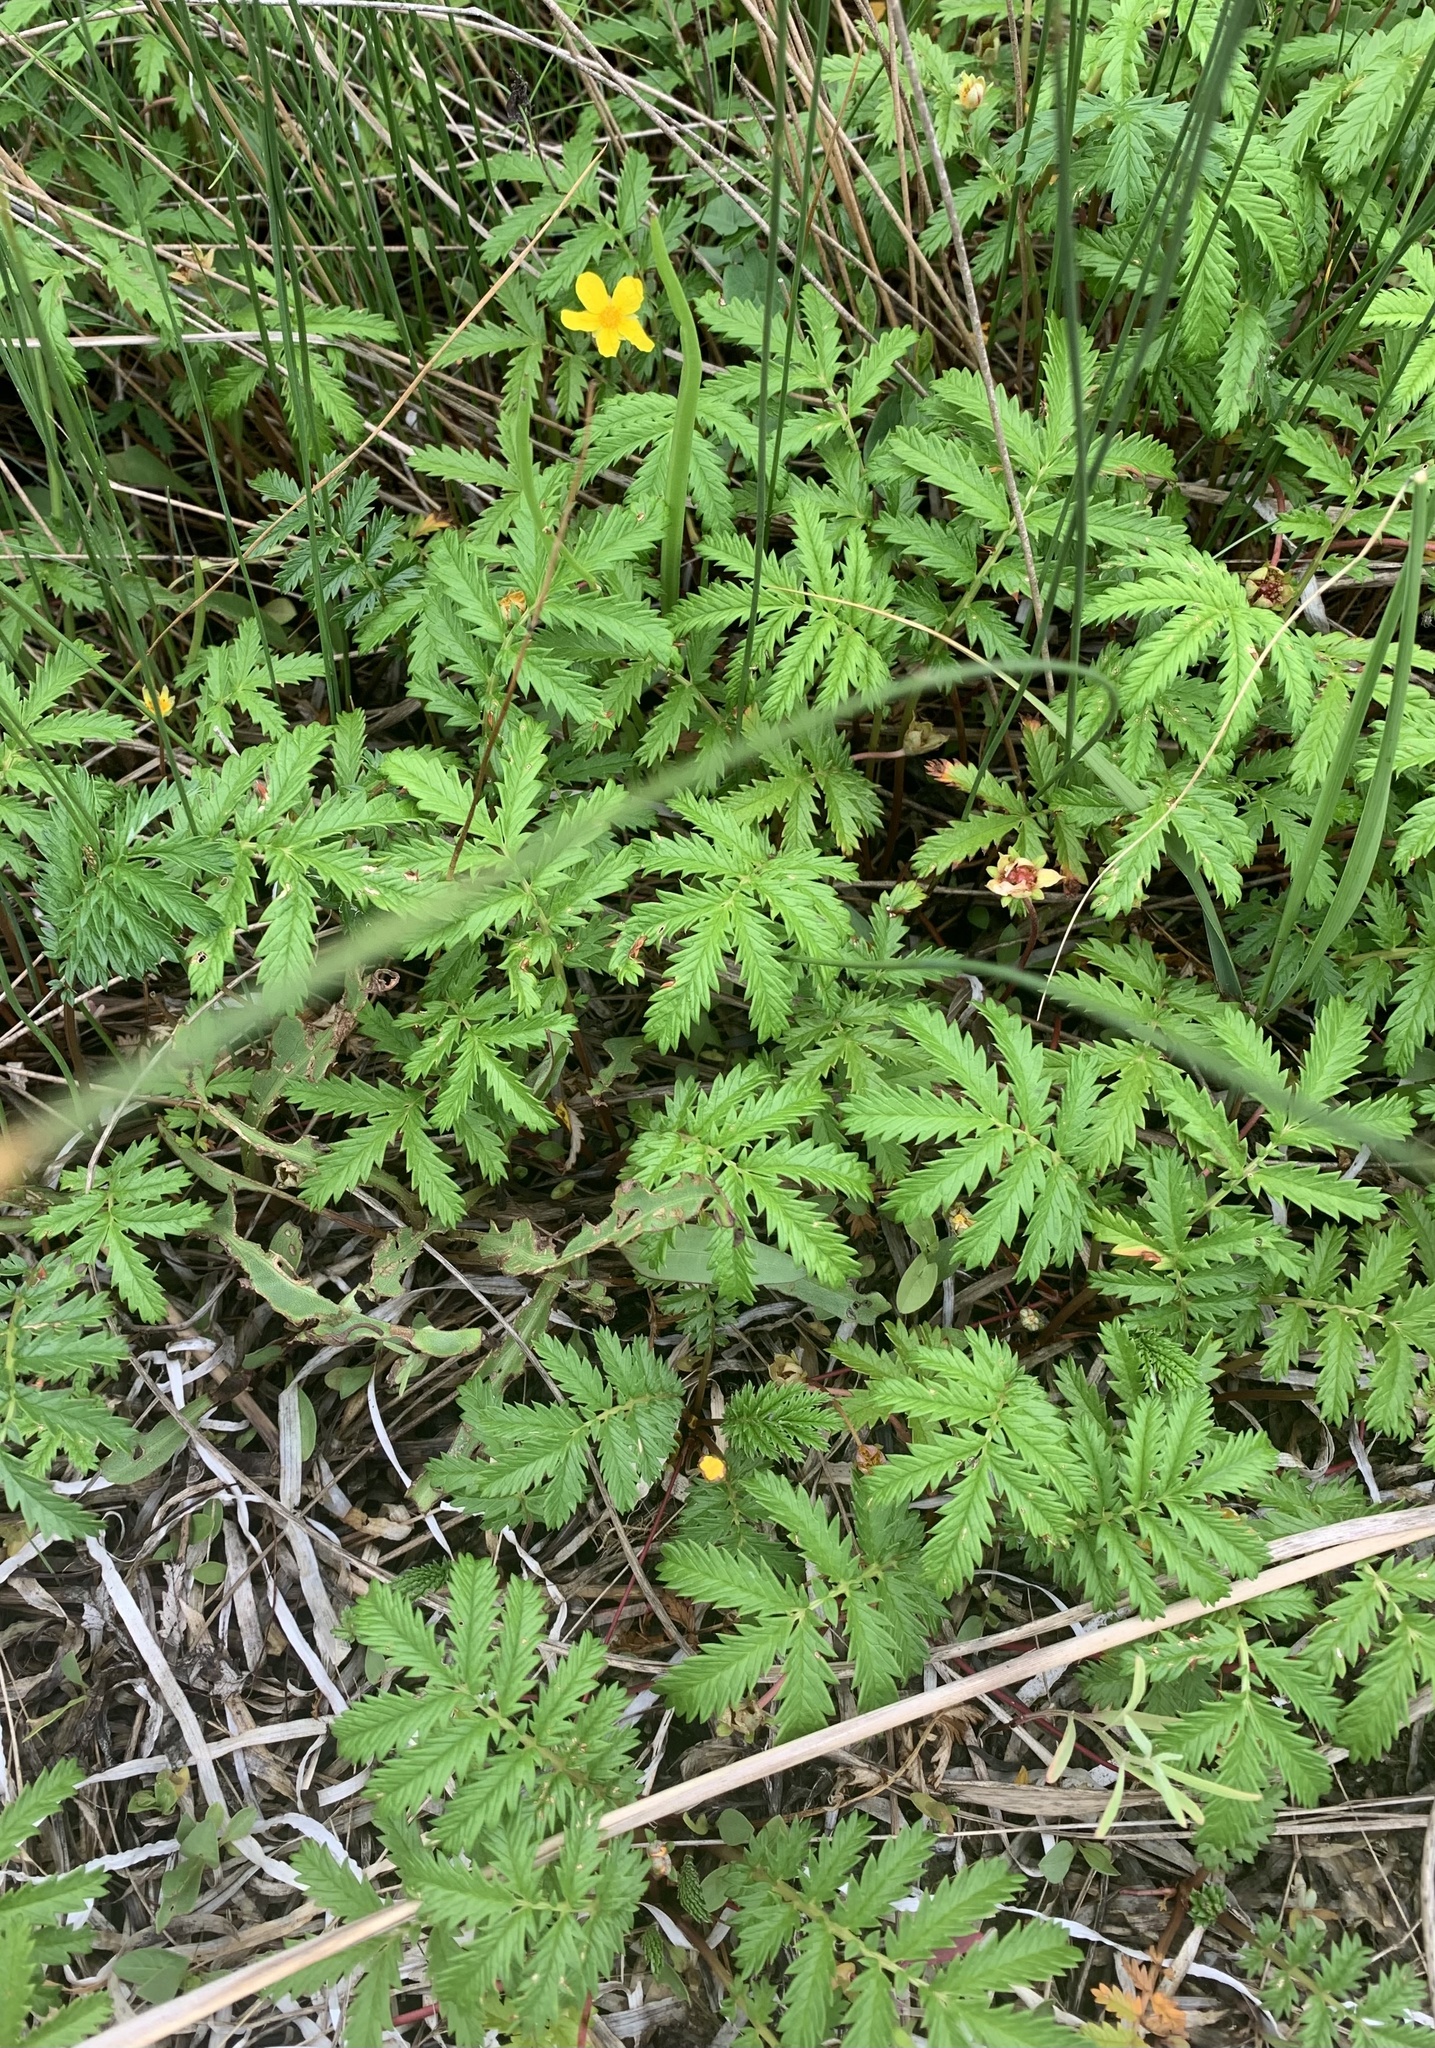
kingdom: Plantae
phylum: Tracheophyta
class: Magnoliopsida
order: Rosales
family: Rosaceae
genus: Argentina
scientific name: Argentina anserina
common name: Common silverweed
